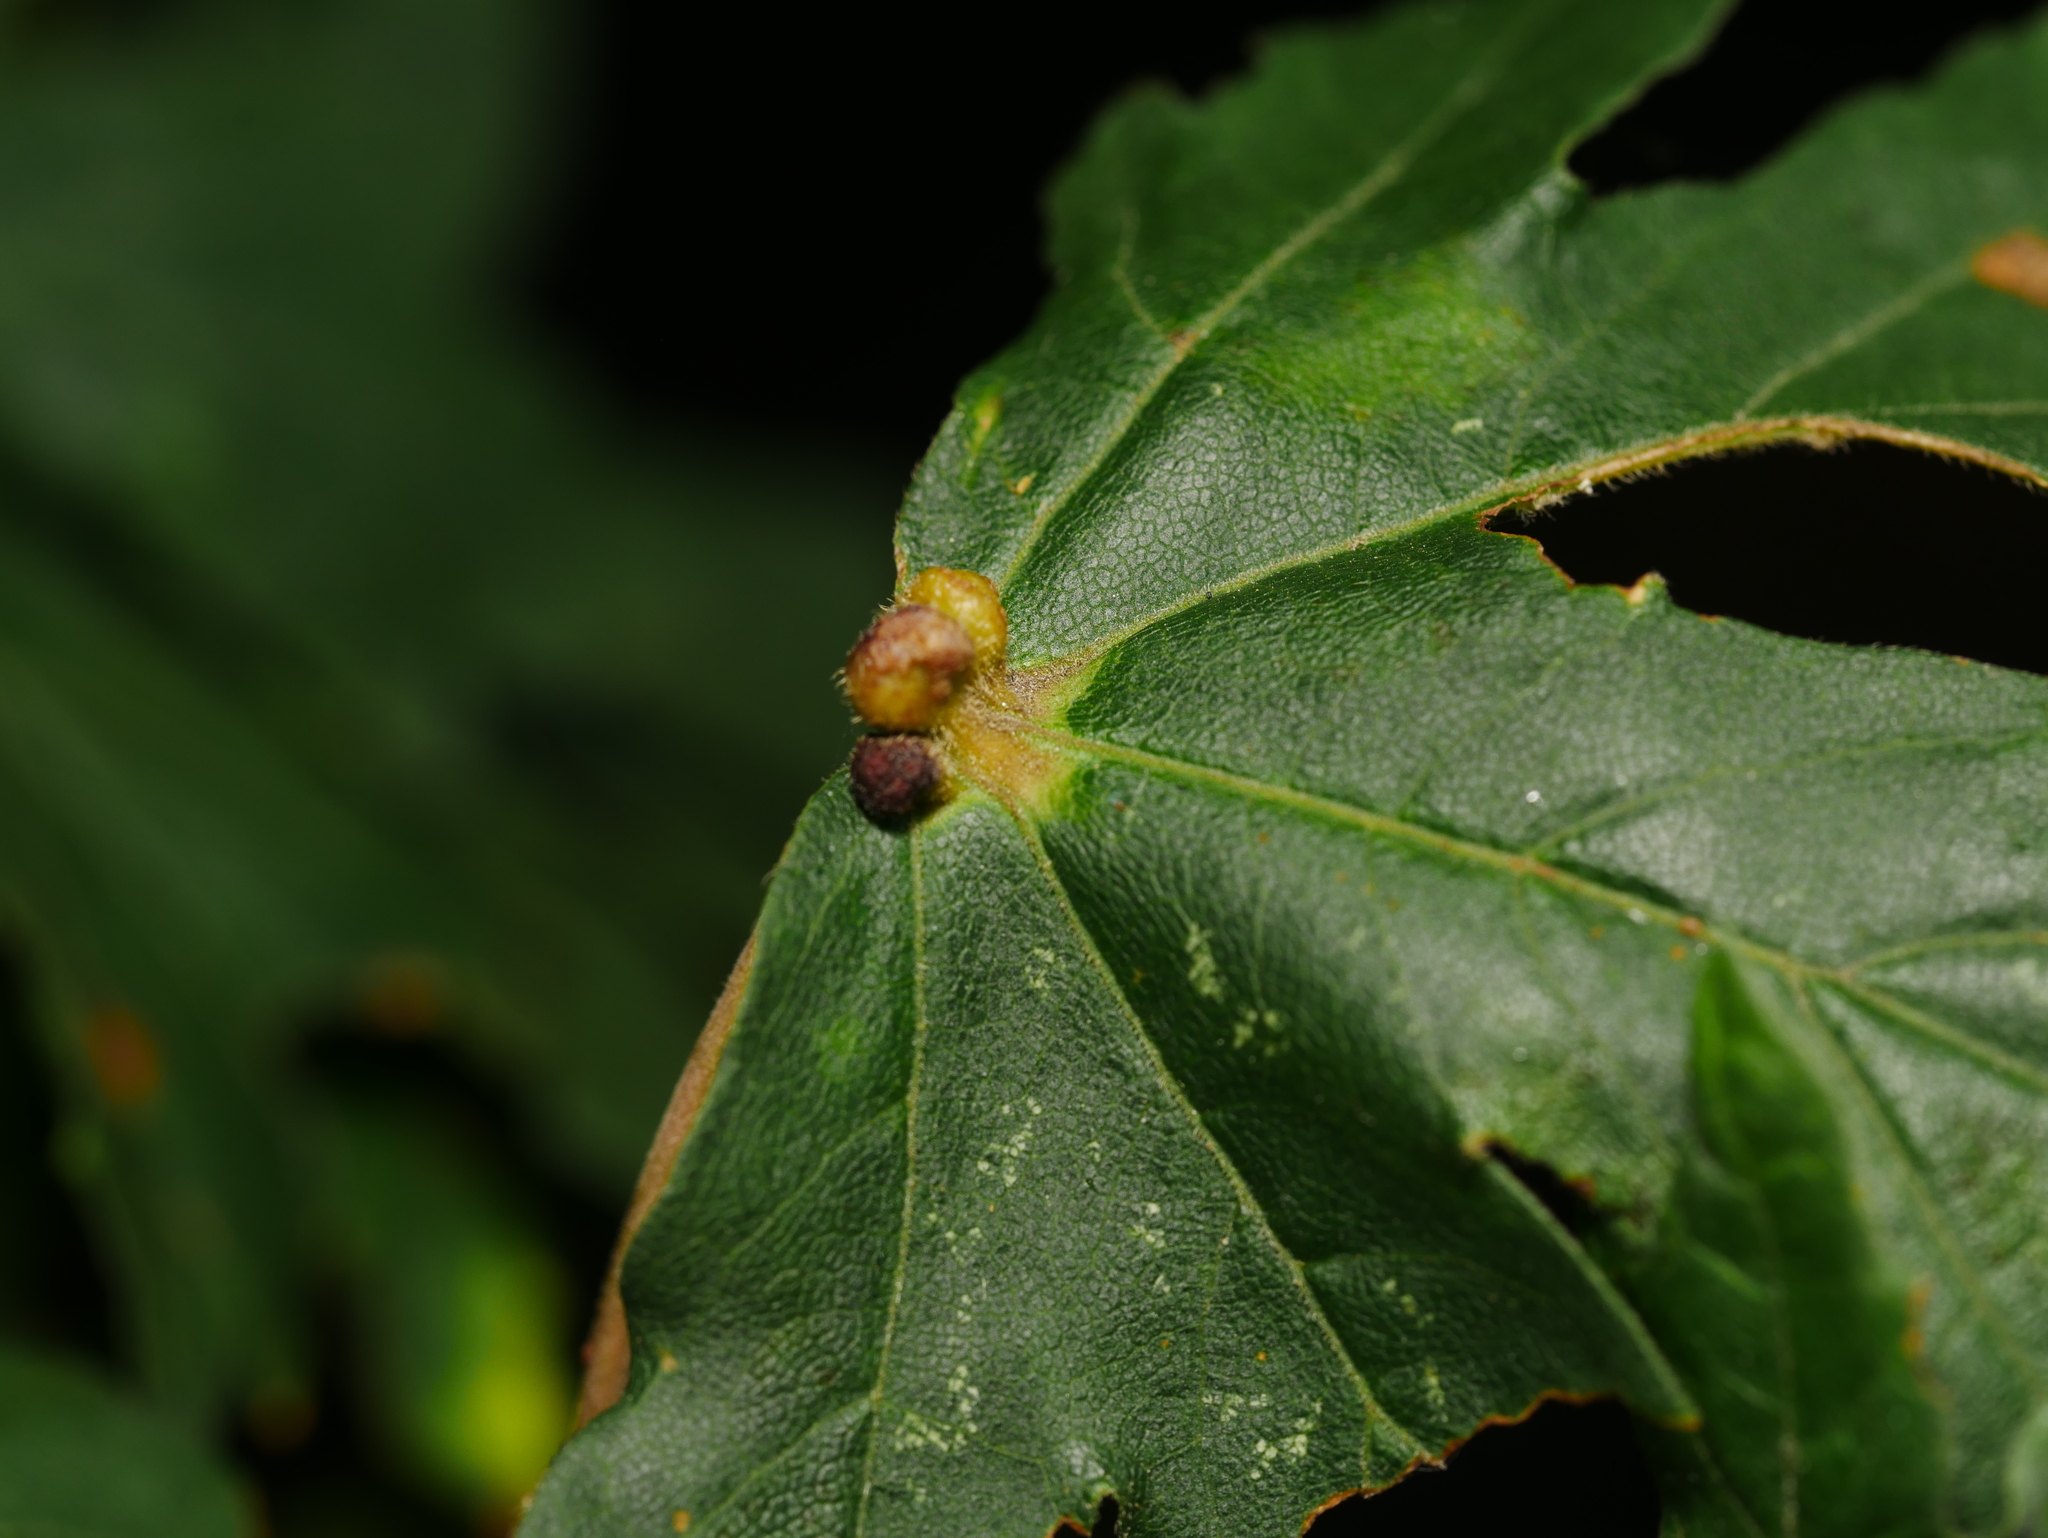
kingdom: Animalia
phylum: Arthropoda
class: Arachnida
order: Trombidiformes
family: Eriophyidae
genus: Aceria
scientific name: Aceria macrochelus
